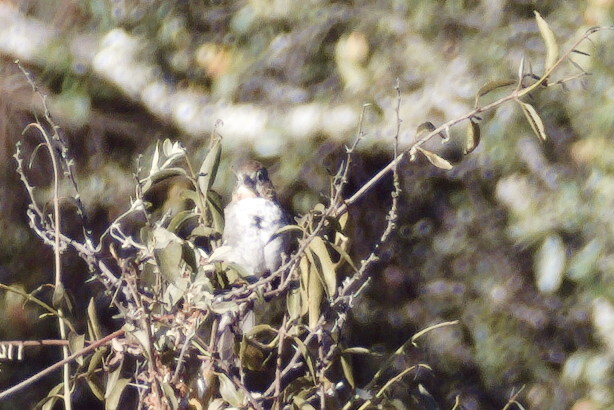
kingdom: Animalia
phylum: Chordata
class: Aves
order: Passeriformes
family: Passerellidae
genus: Melozone
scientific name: Melozone albicollis
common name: White-throated towhee
